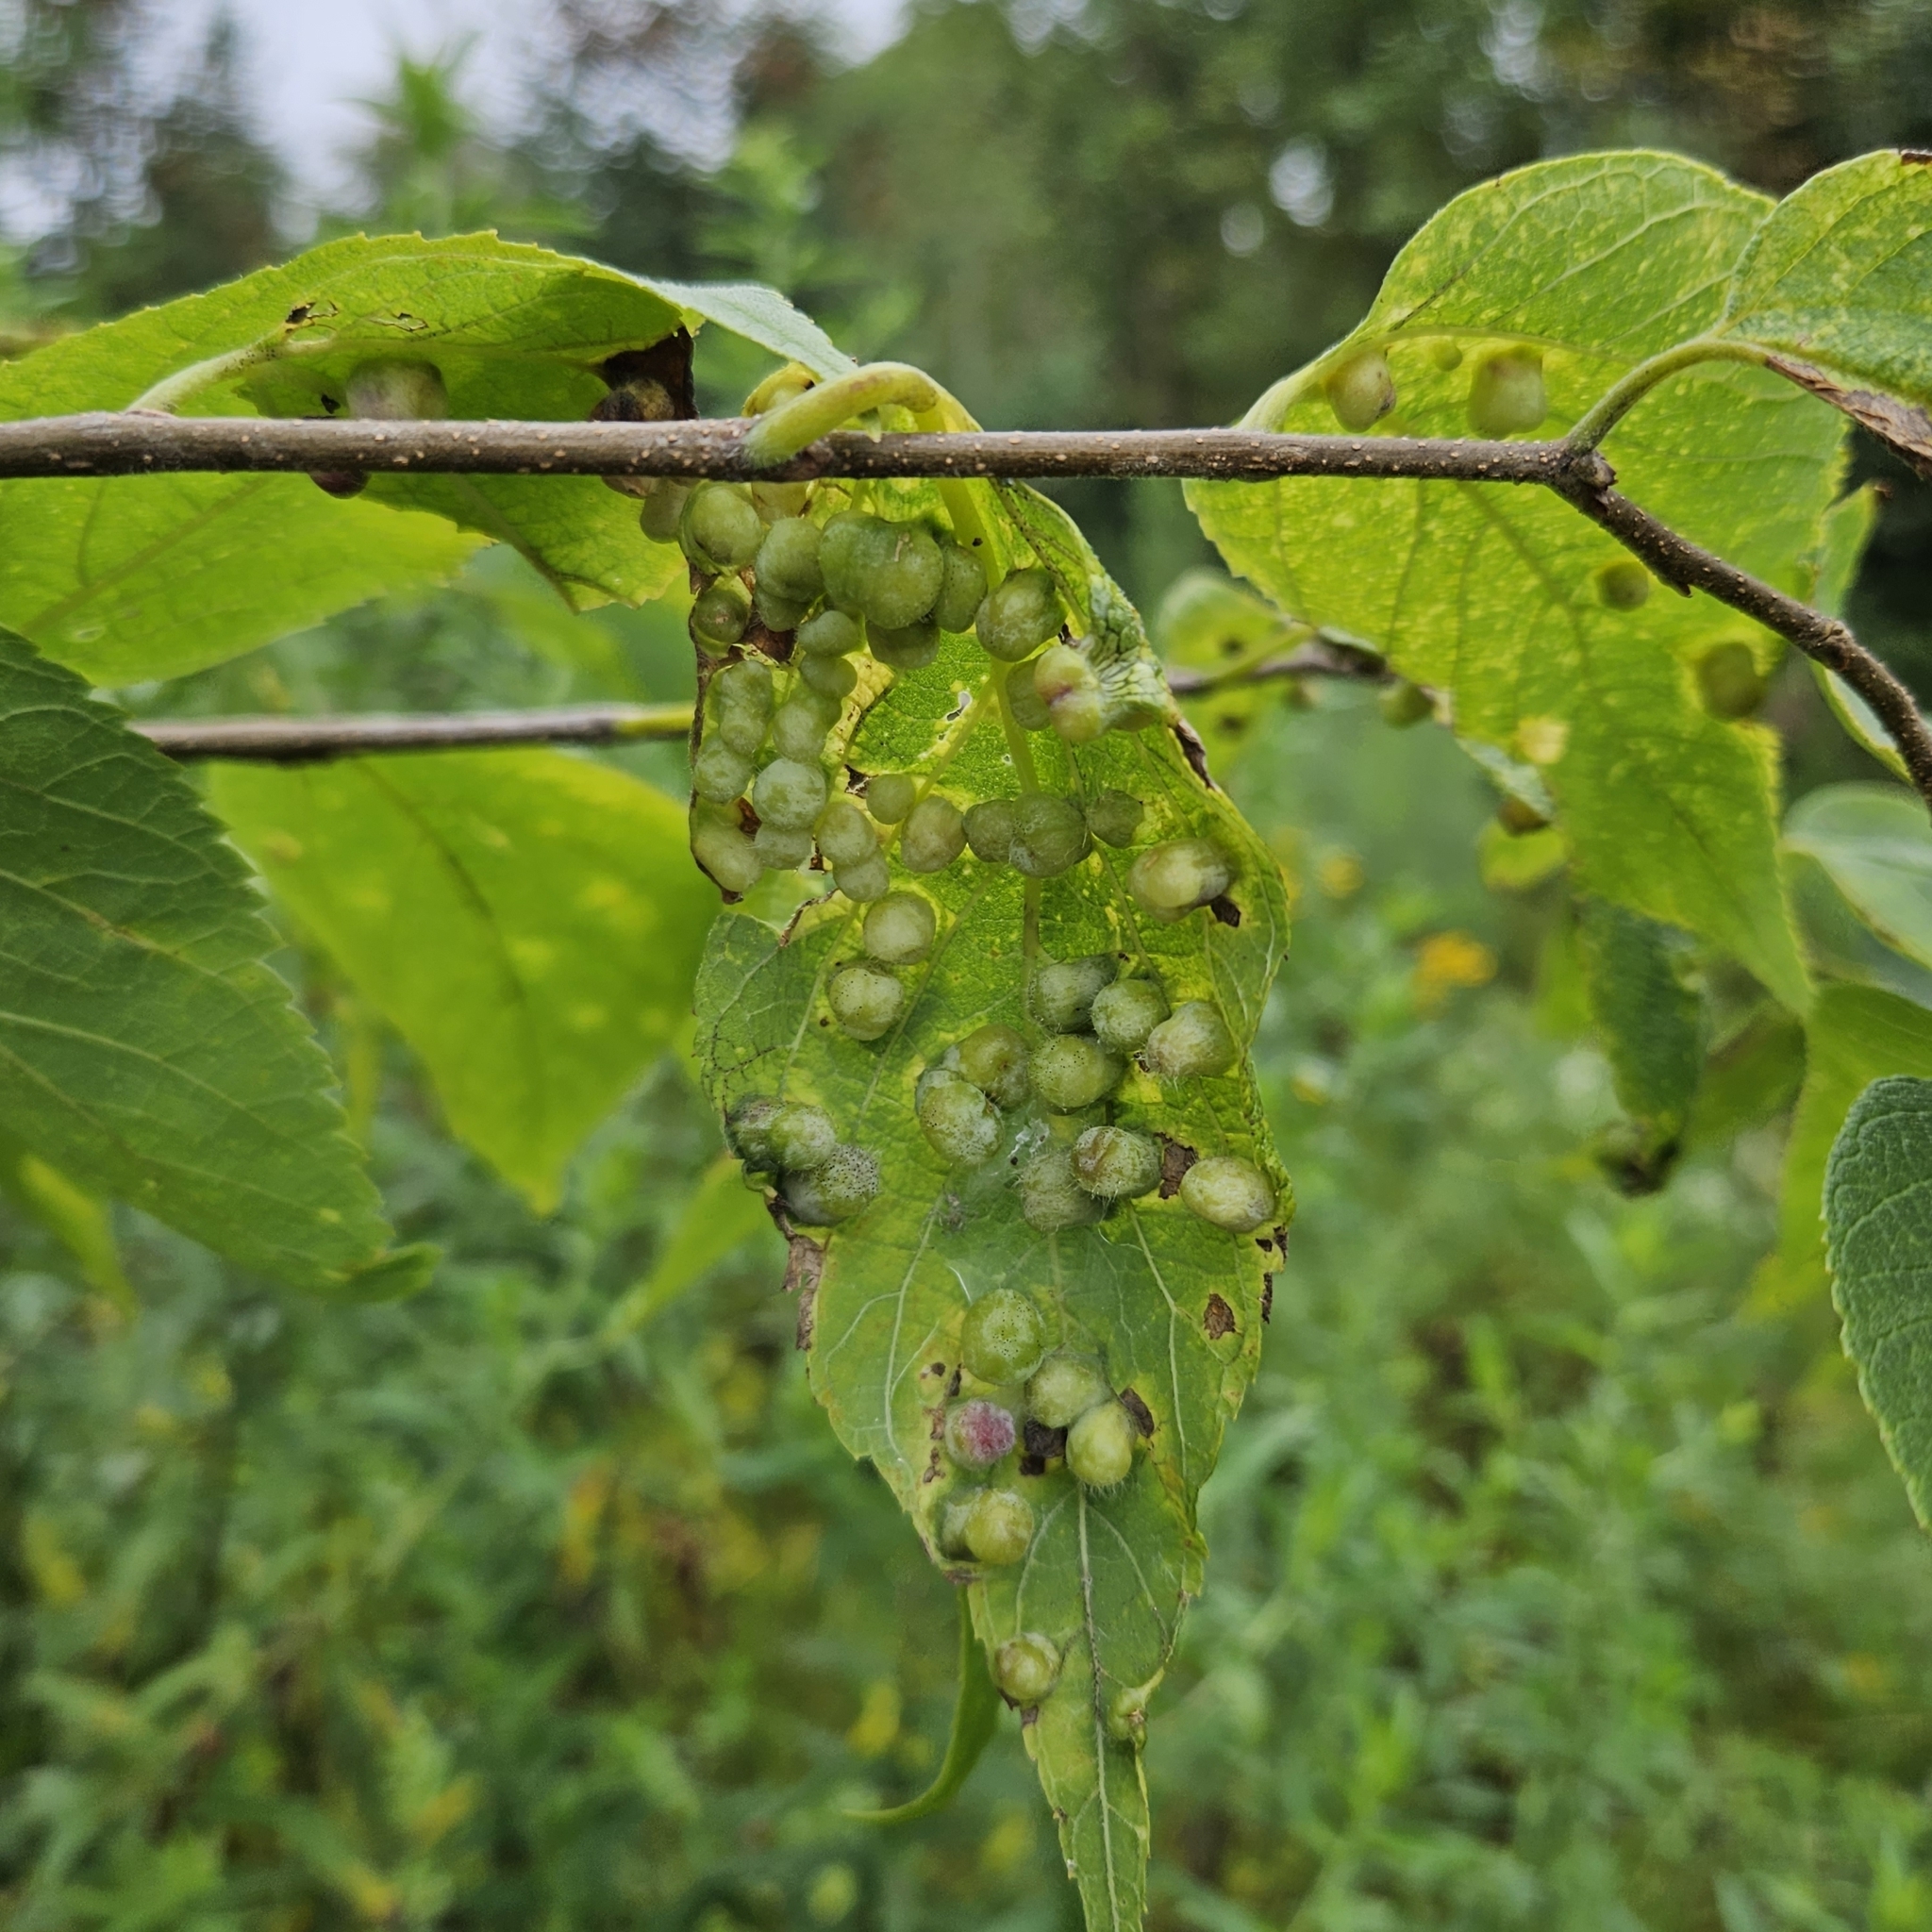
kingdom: Animalia
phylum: Arthropoda
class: Insecta
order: Hemiptera
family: Aphalaridae
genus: Pachypsylla
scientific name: Pachypsylla celtidismamma
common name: Hackberry nipplegall psyllid
